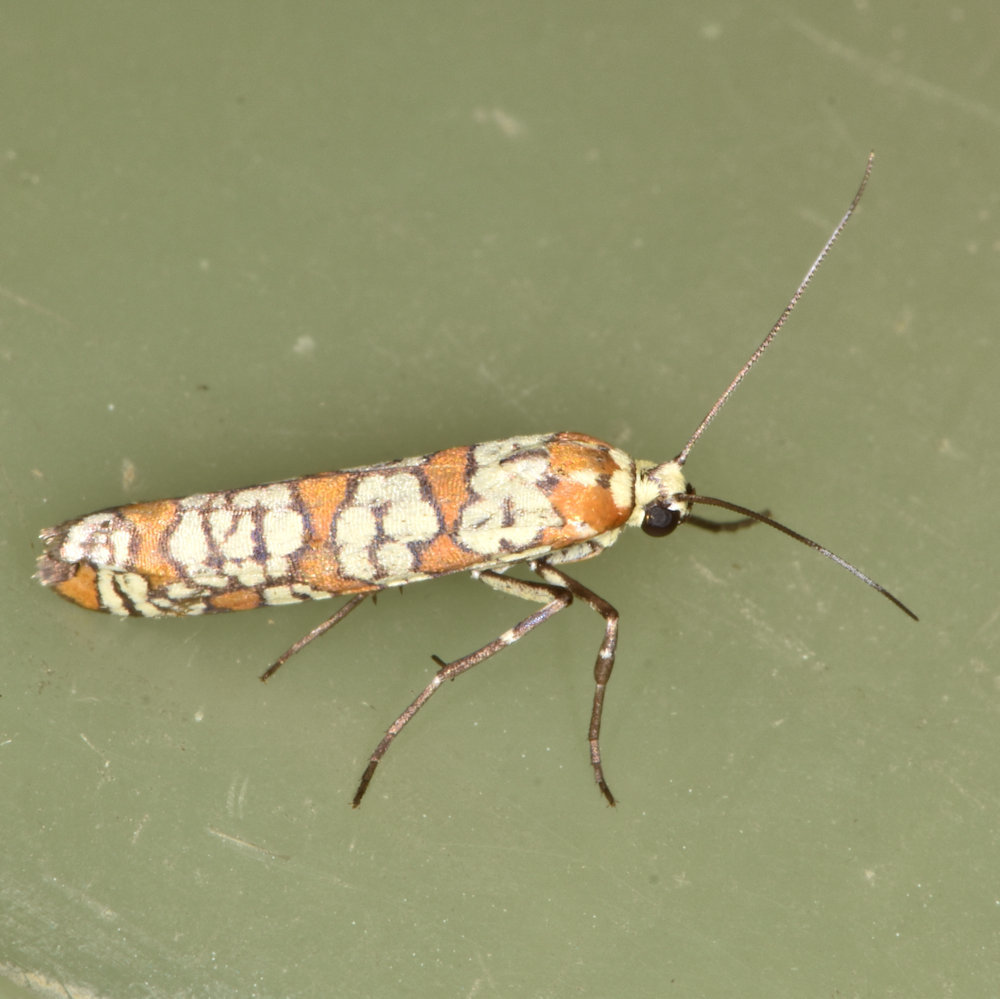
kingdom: Animalia
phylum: Arthropoda
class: Insecta
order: Lepidoptera
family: Attevidae
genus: Atteva
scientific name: Atteva punctella
